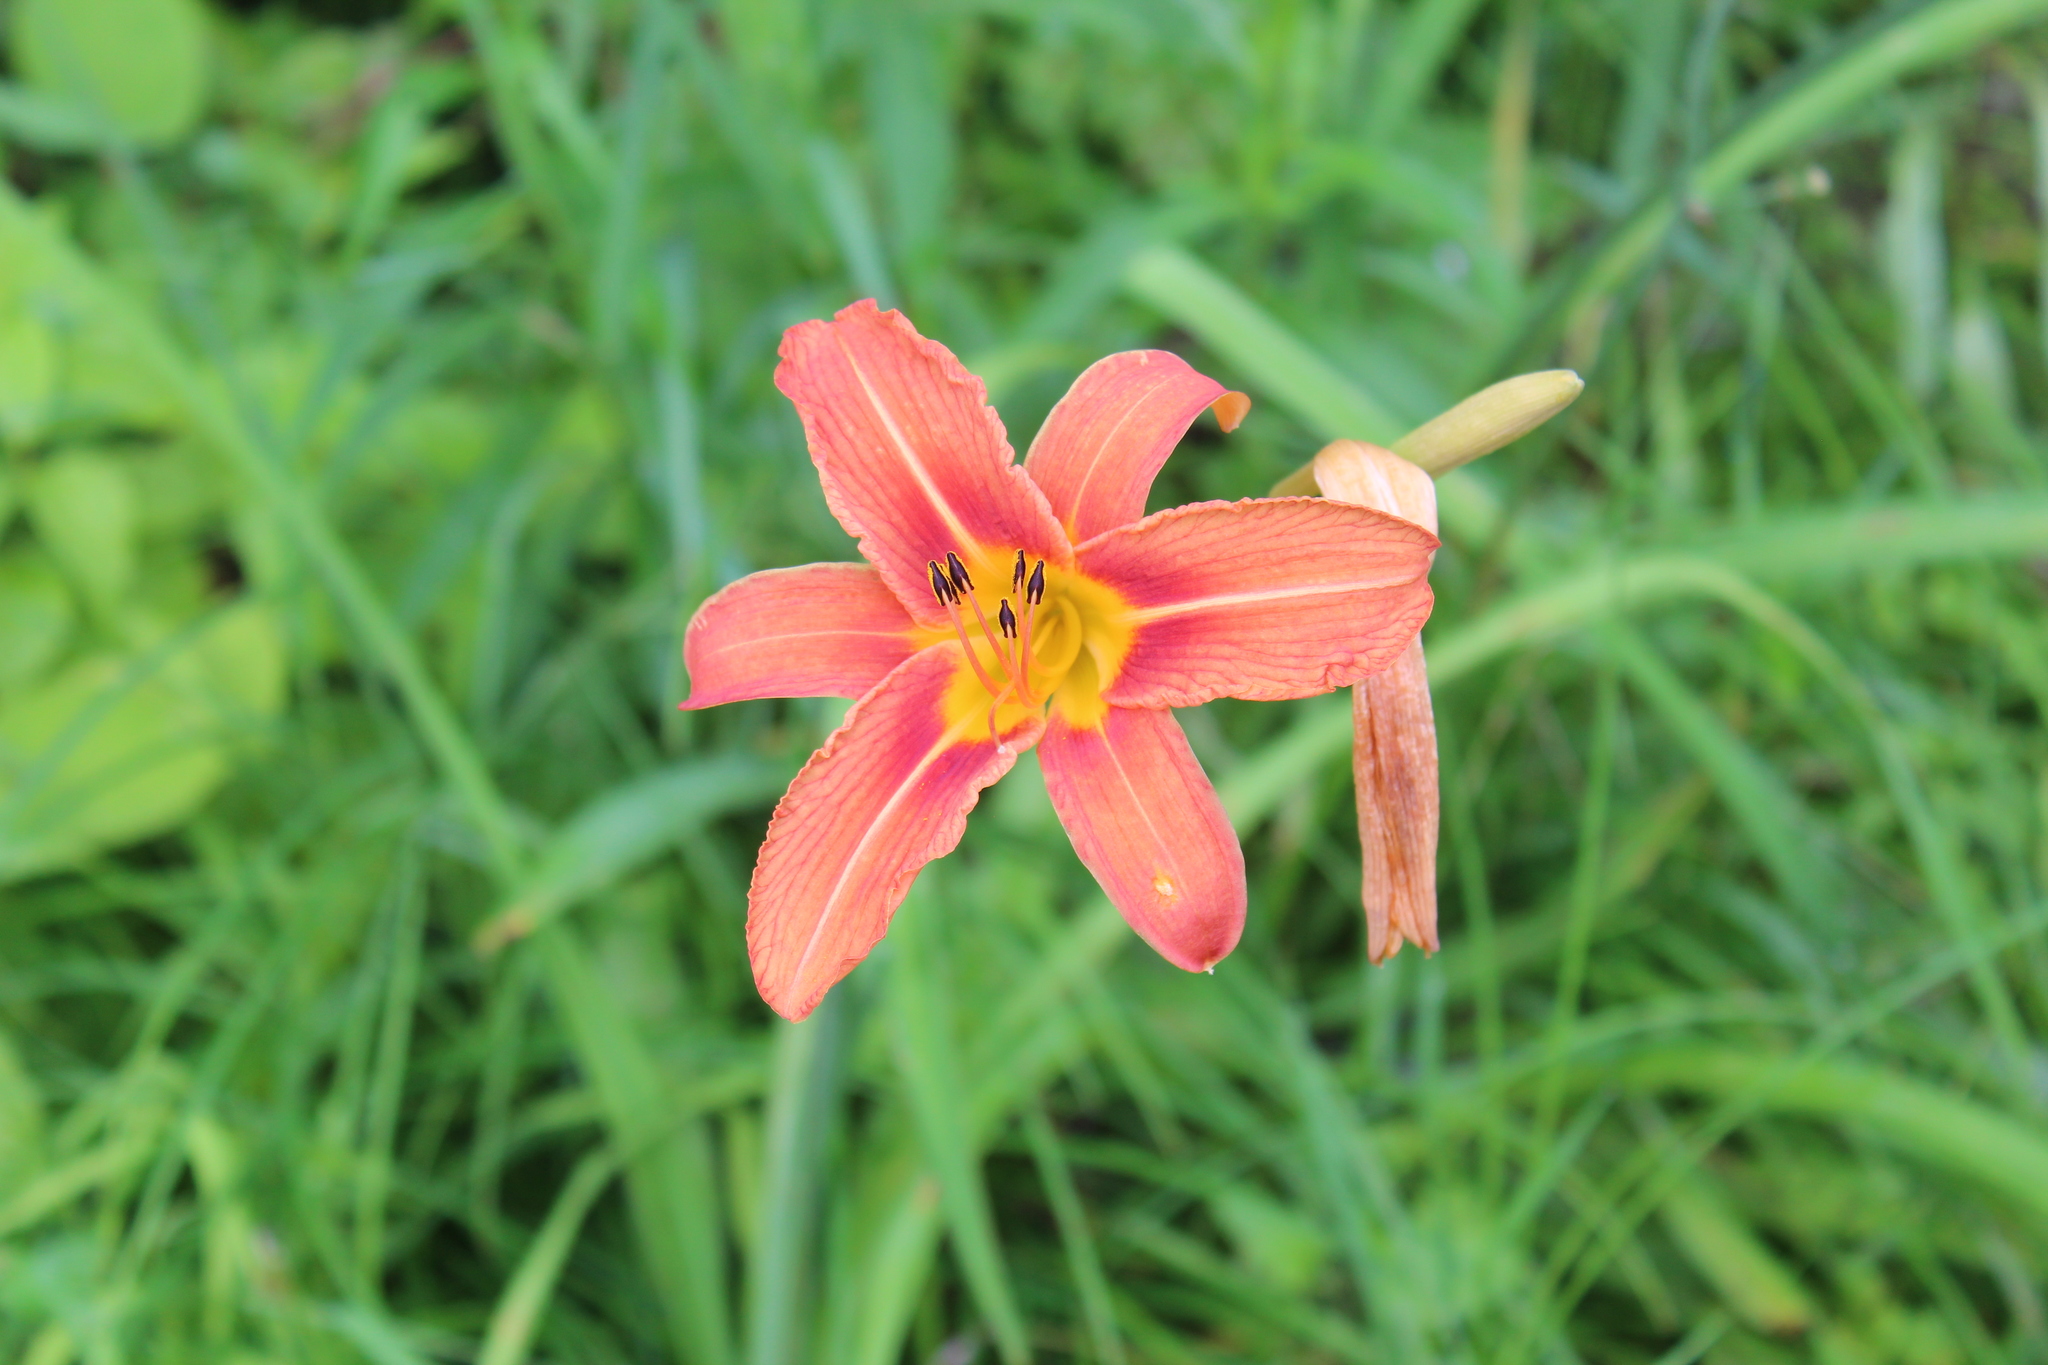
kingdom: Plantae
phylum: Tracheophyta
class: Liliopsida
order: Asparagales
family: Asphodelaceae
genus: Hemerocallis
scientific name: Hemerocallis fulva
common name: Orange day-lily
